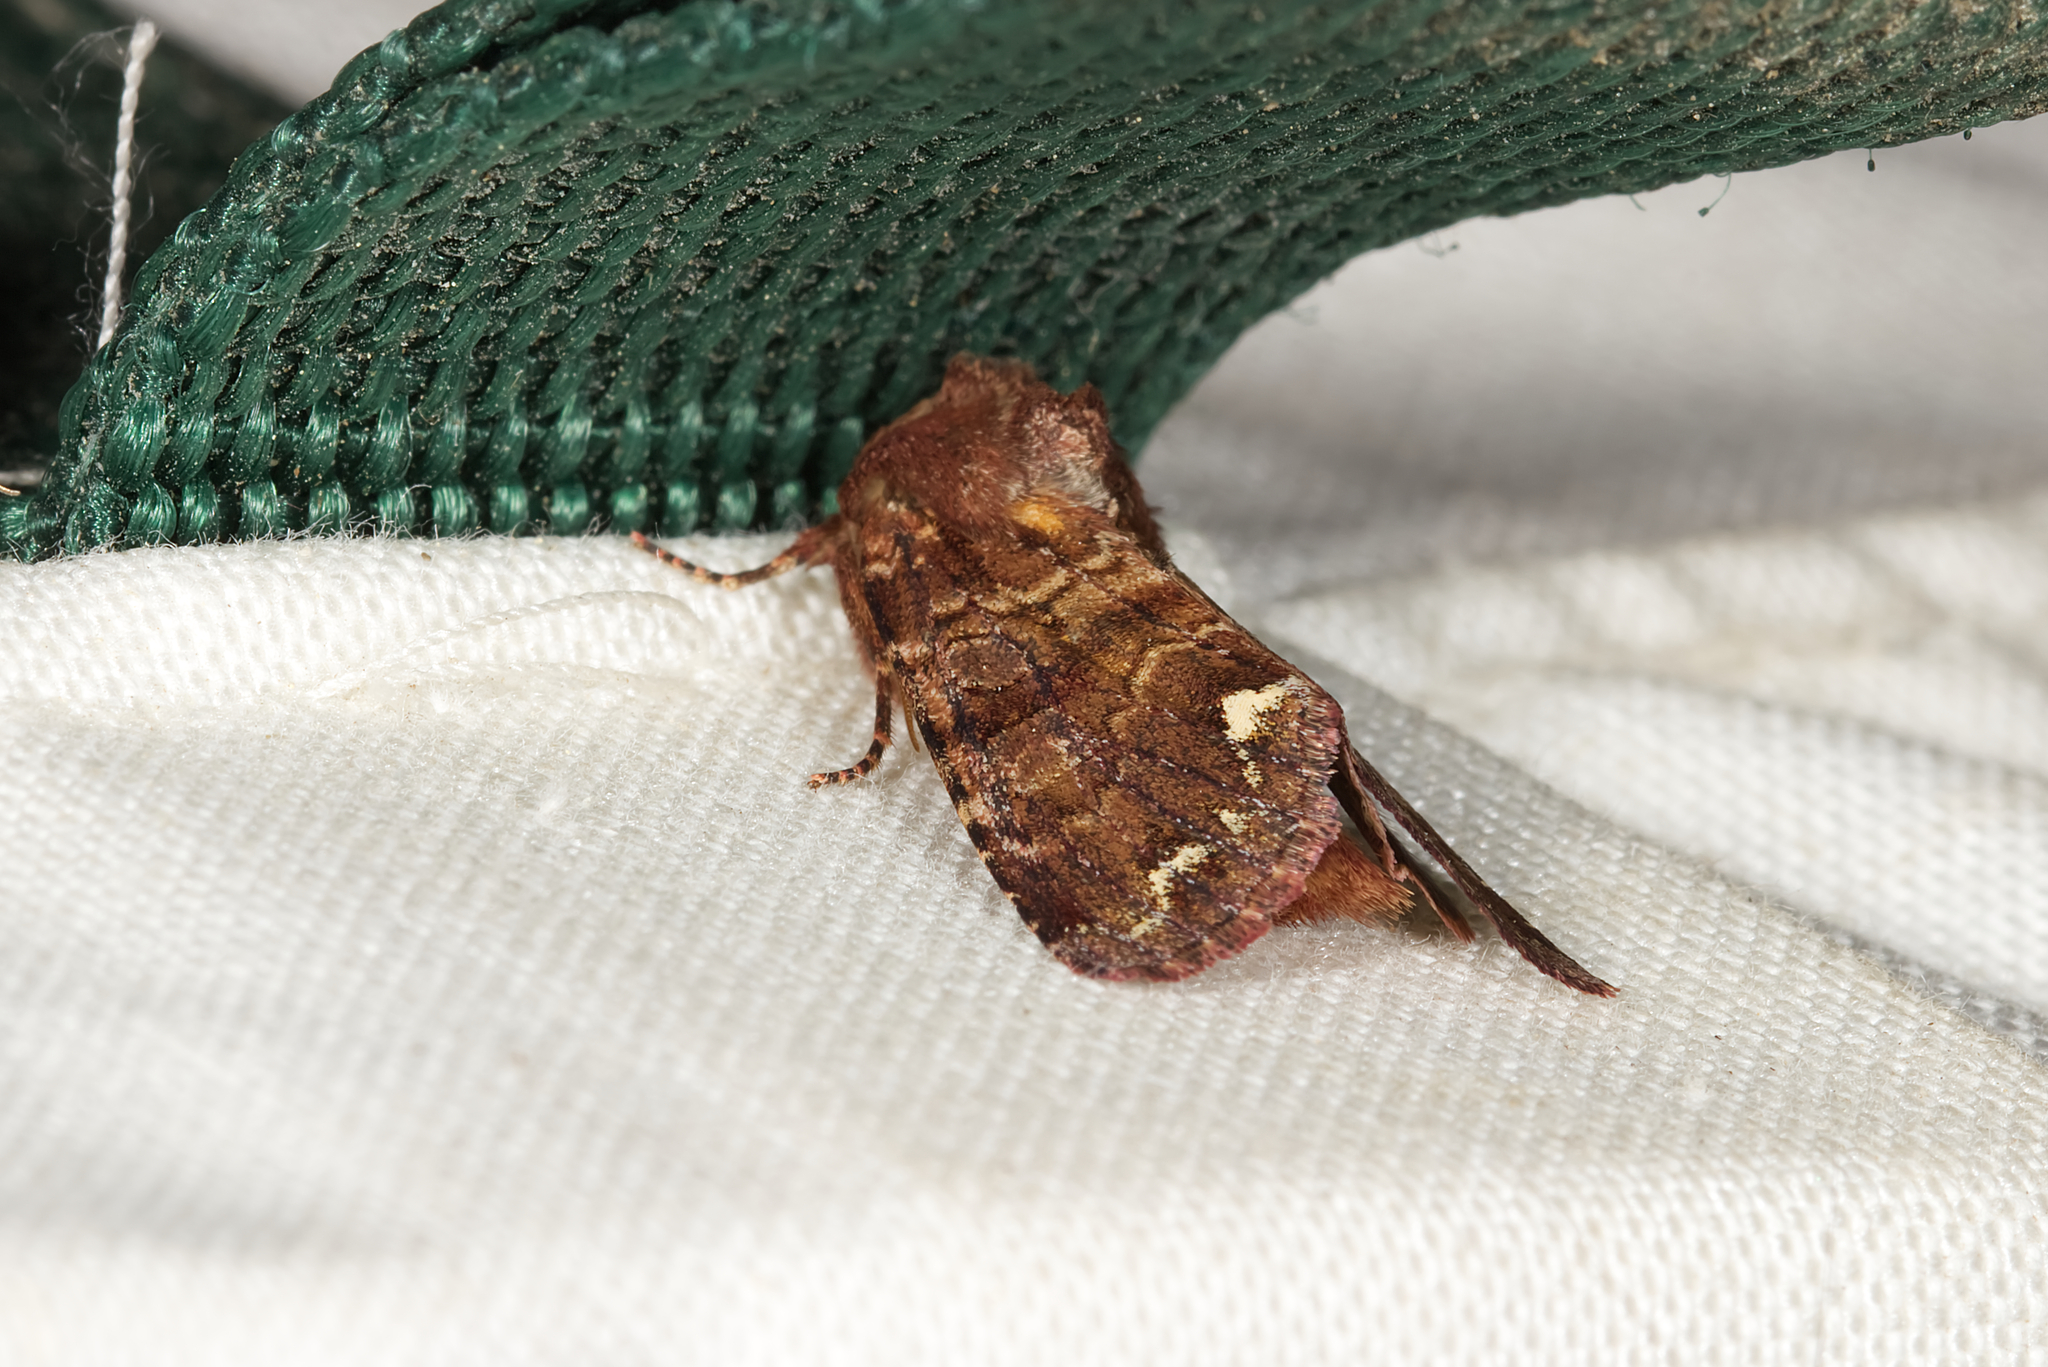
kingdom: Animalia
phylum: Arthropoda
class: Insecta
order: Lepidoptera
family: Noctuidae
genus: Ceramica
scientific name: Ceramica pisi
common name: Broom moth
